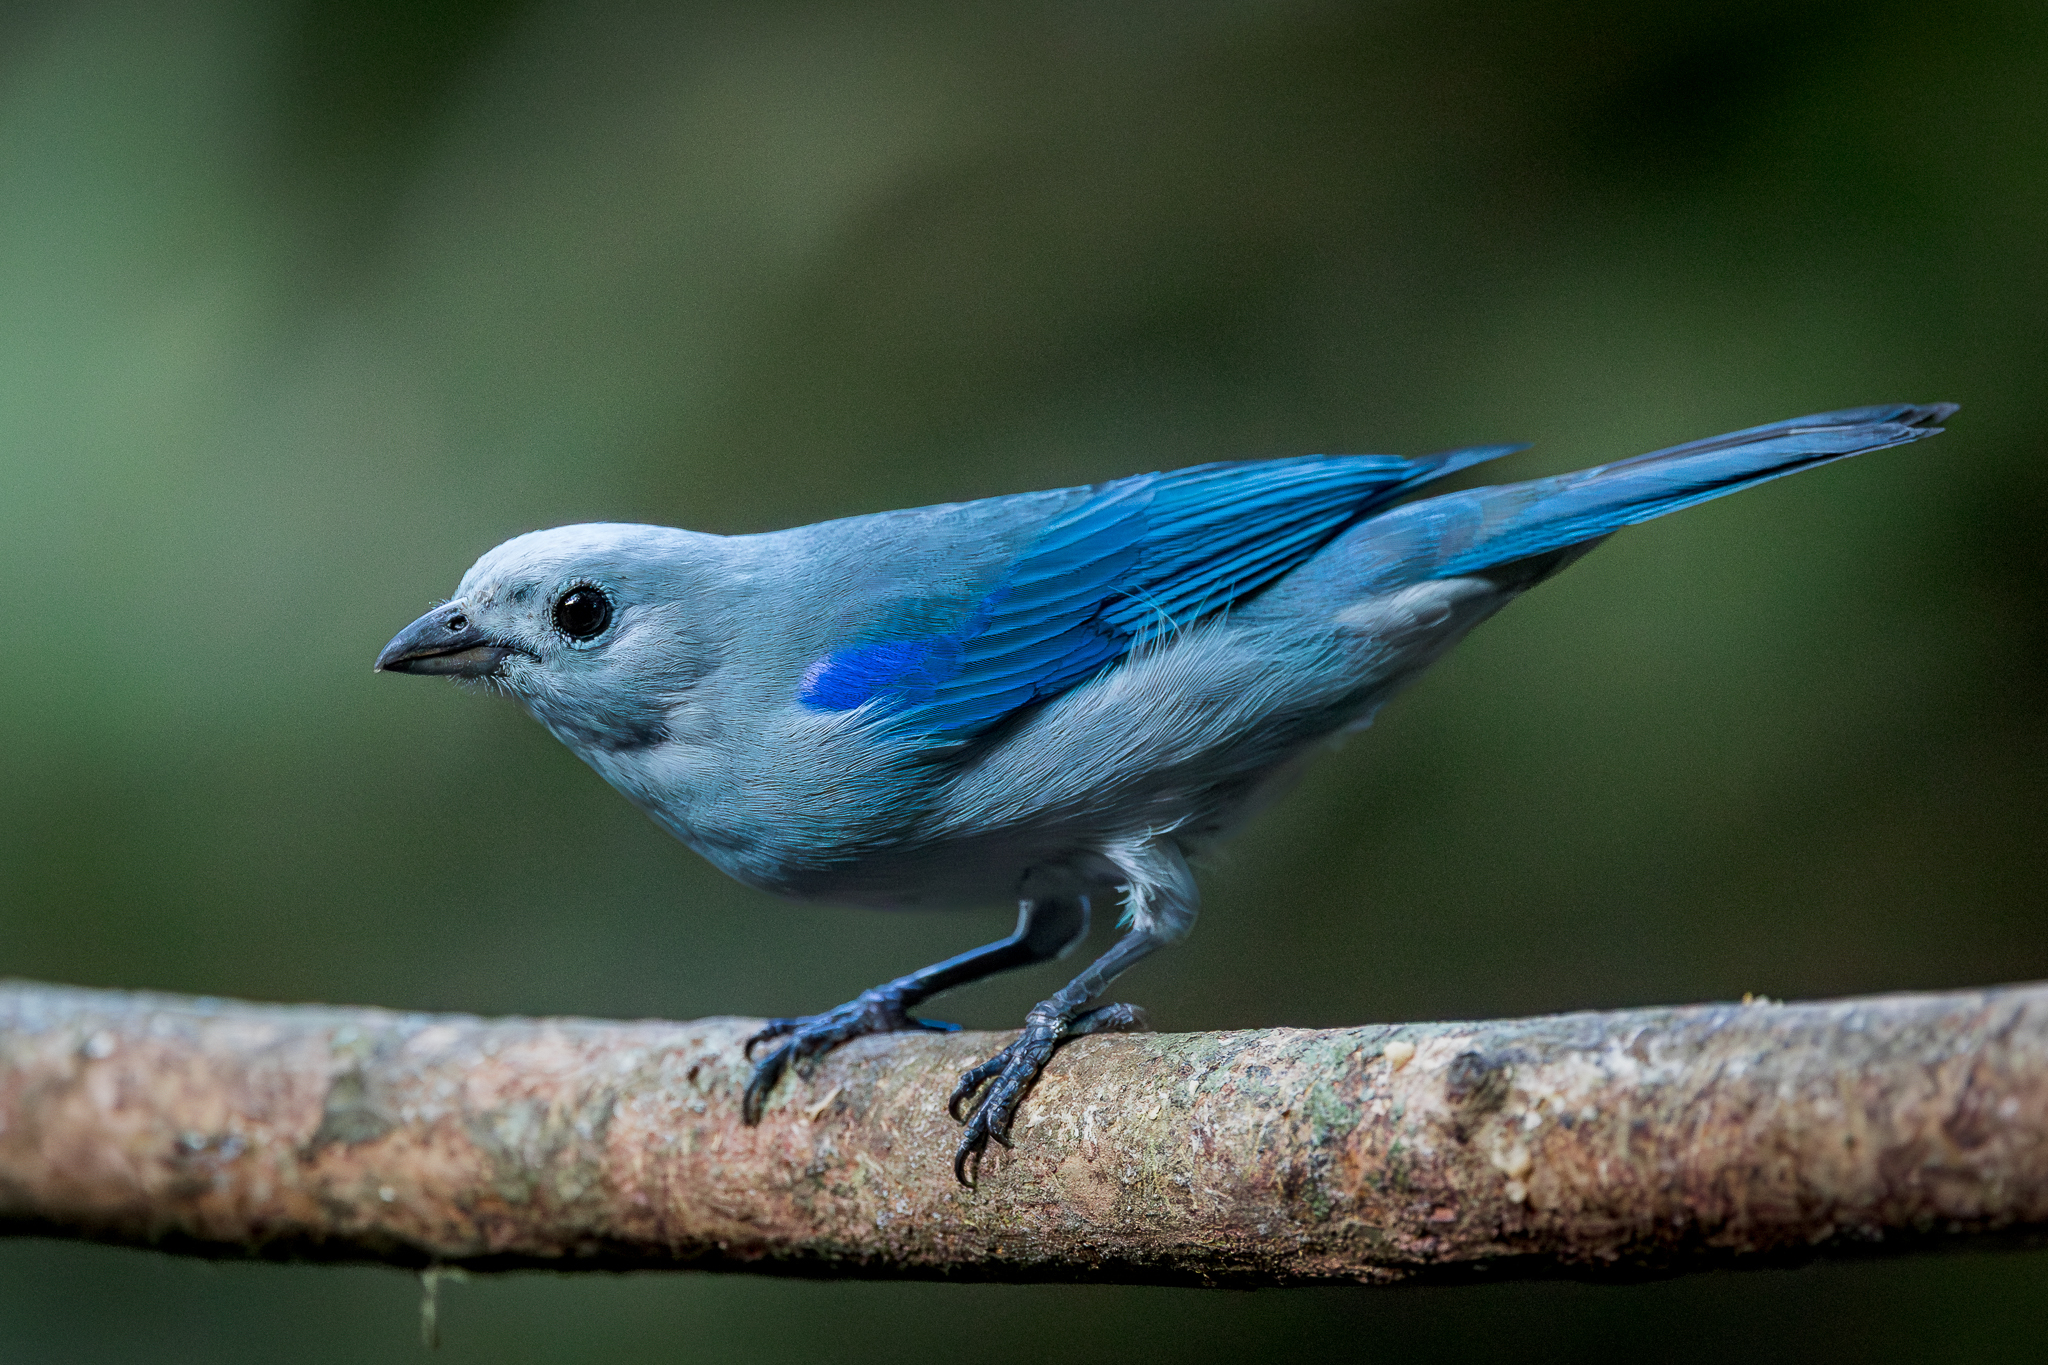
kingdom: Animalia
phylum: Chordata
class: Aves
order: Passeriformes
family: Thraupidae
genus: Thraupis
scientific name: Thraupis episcopus
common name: Blue-grey tanager
